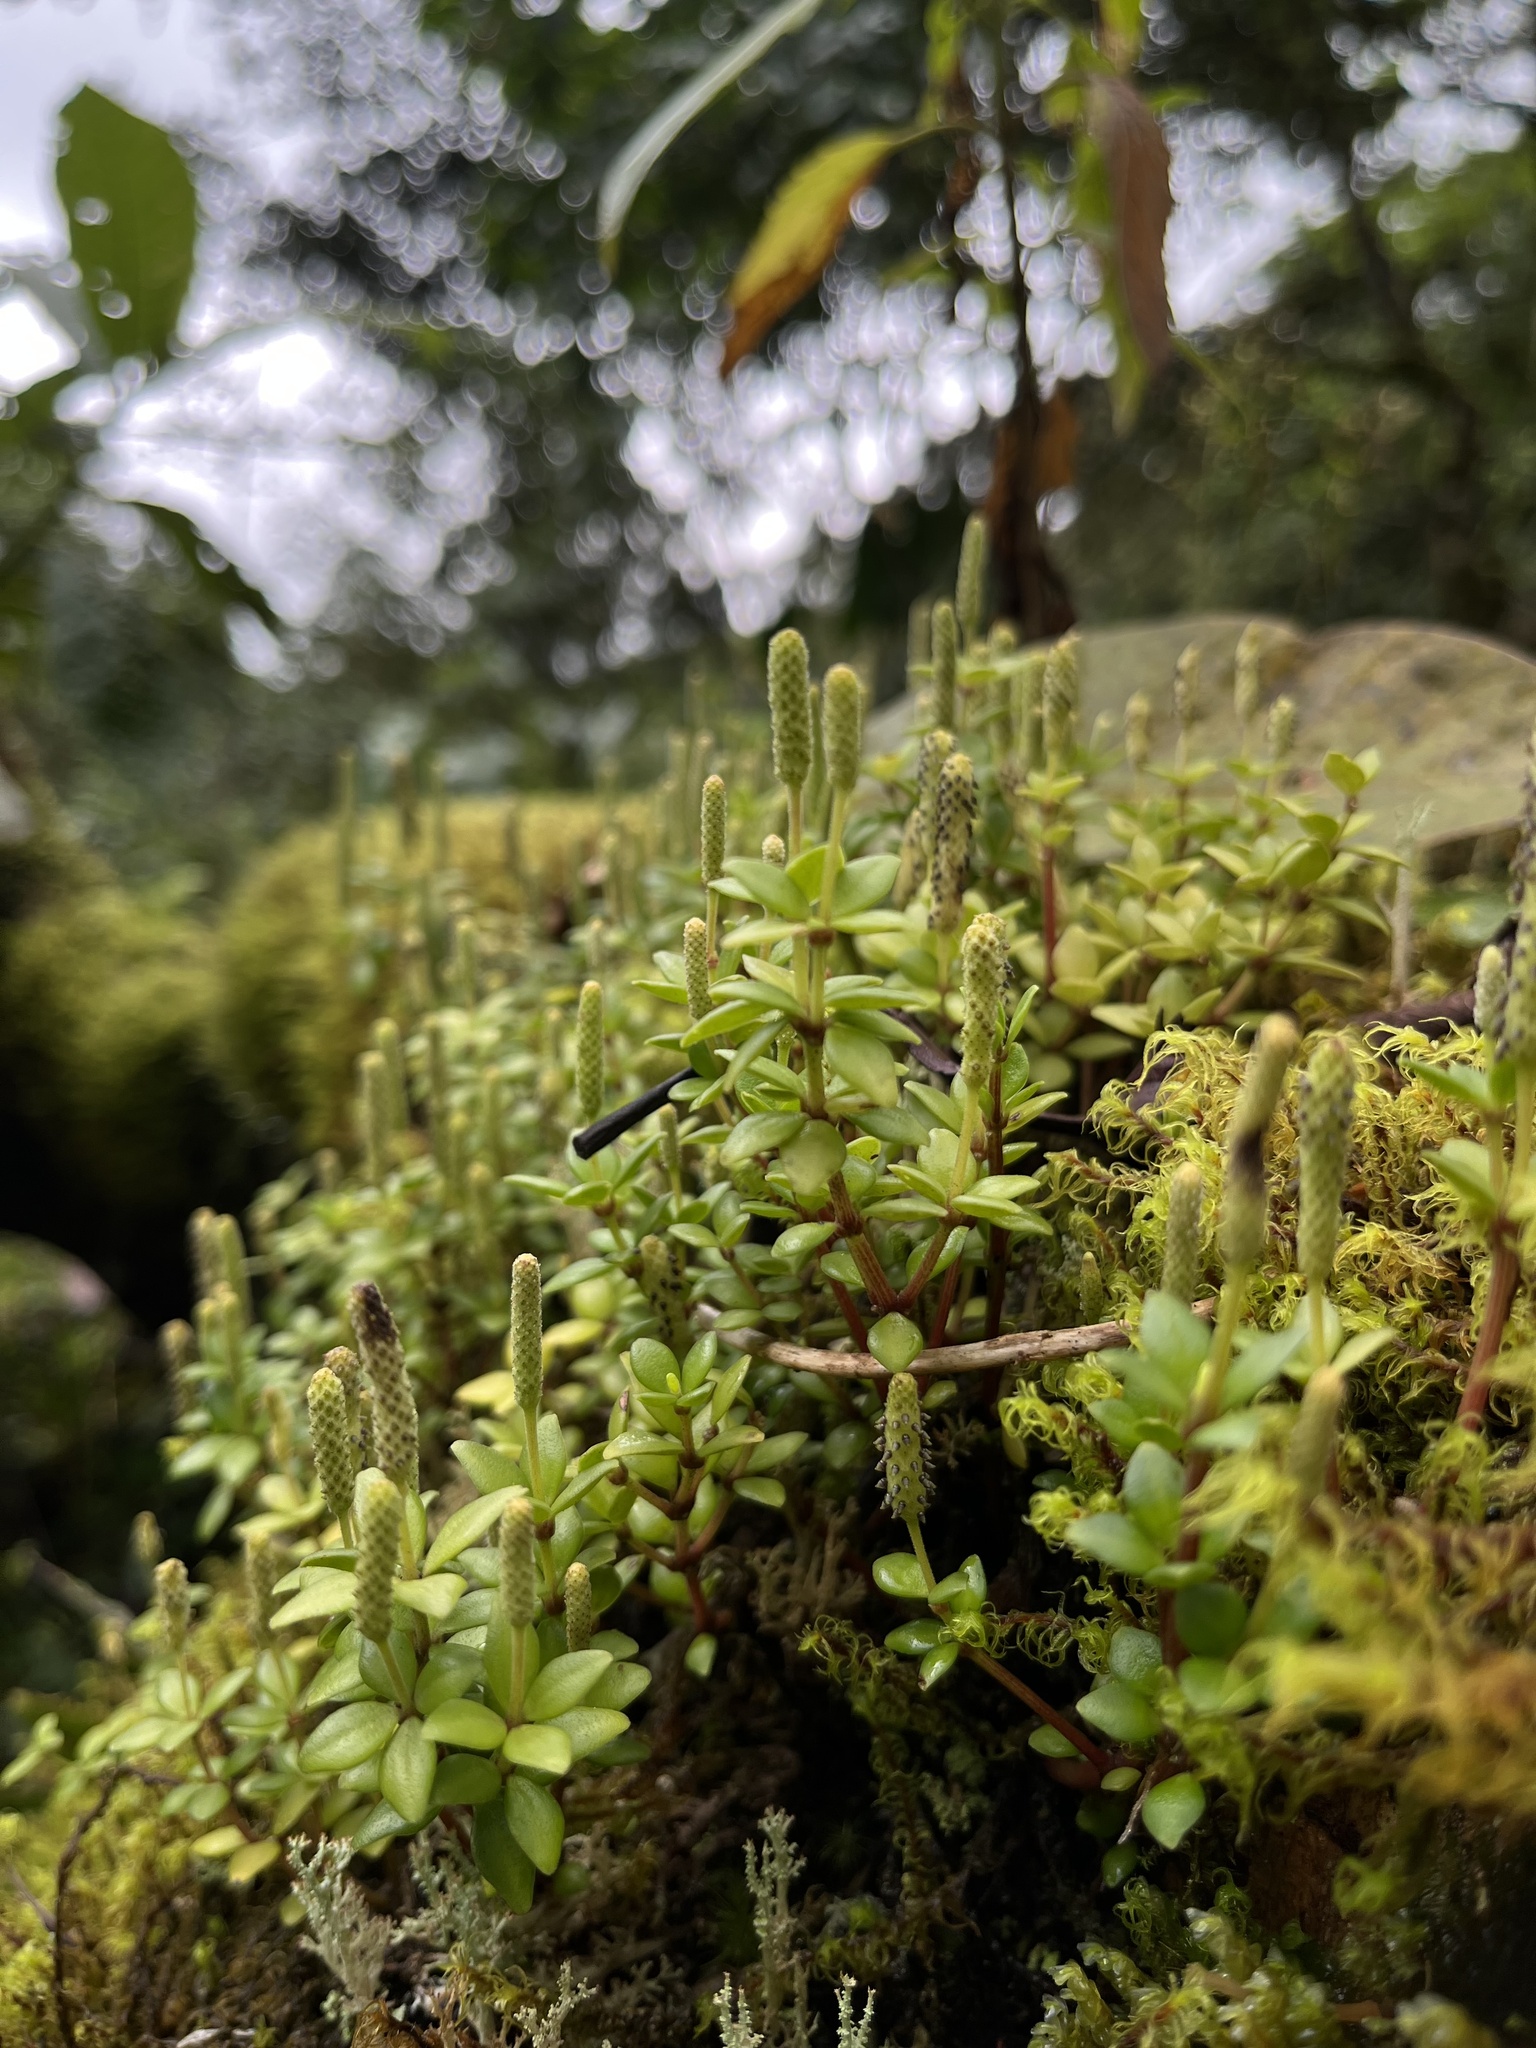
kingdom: Plantae
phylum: Tracheophyta
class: Magnoliopsida
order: Piperales
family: Piperaceae
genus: Peperomia
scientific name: Peperomia tetraphylla
